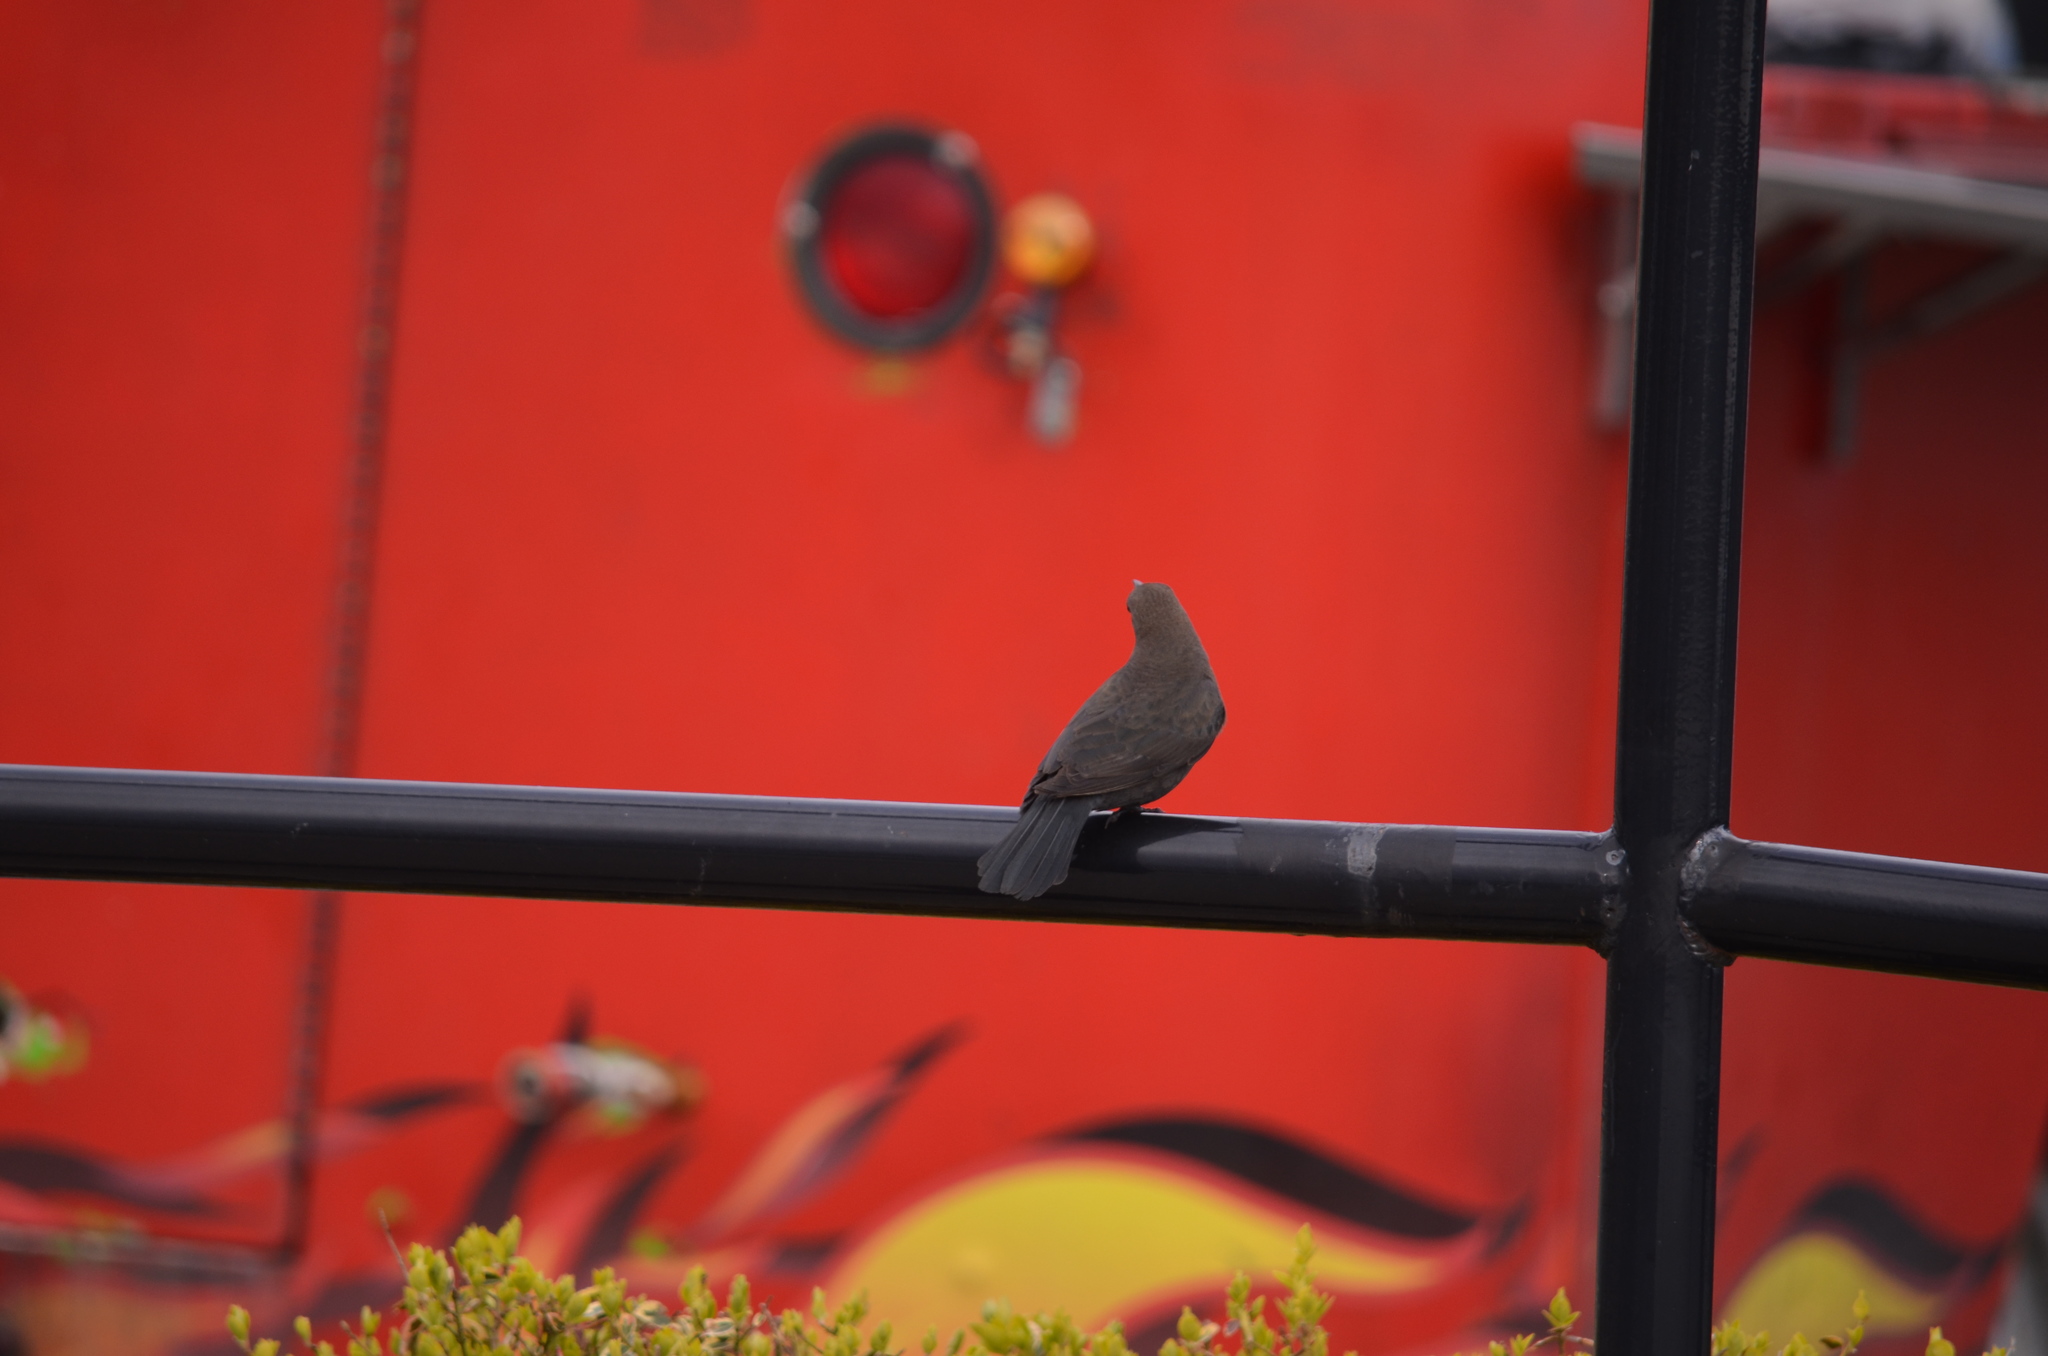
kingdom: Animalia
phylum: Chordata
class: Aves
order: Passeriformes
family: Icteridae
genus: Euphagus
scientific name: Euphagus cyanocephalus
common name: Brewer's blackbird
